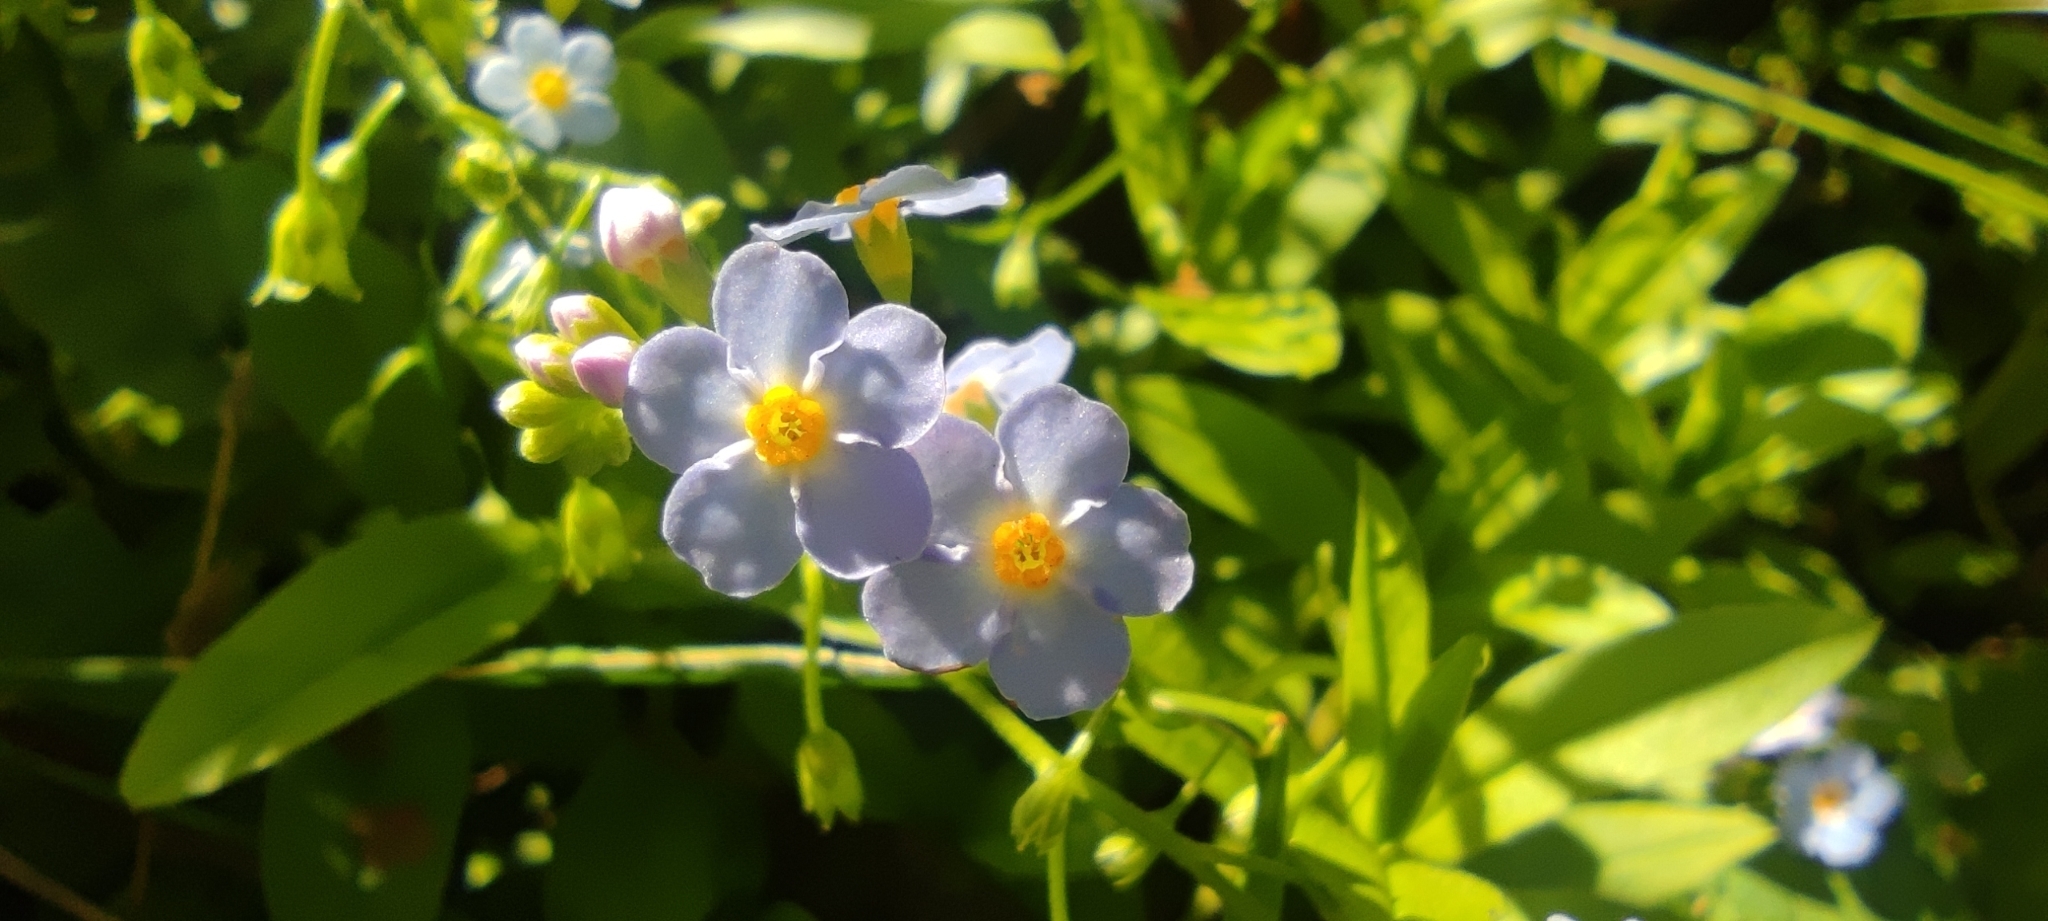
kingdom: Plantae
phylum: Tracheophyta
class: Magnoliopsida
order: Boraginales
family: Boraginaceae
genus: Myosotis
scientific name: Myosotis scorpioides
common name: Water forget-me-not
